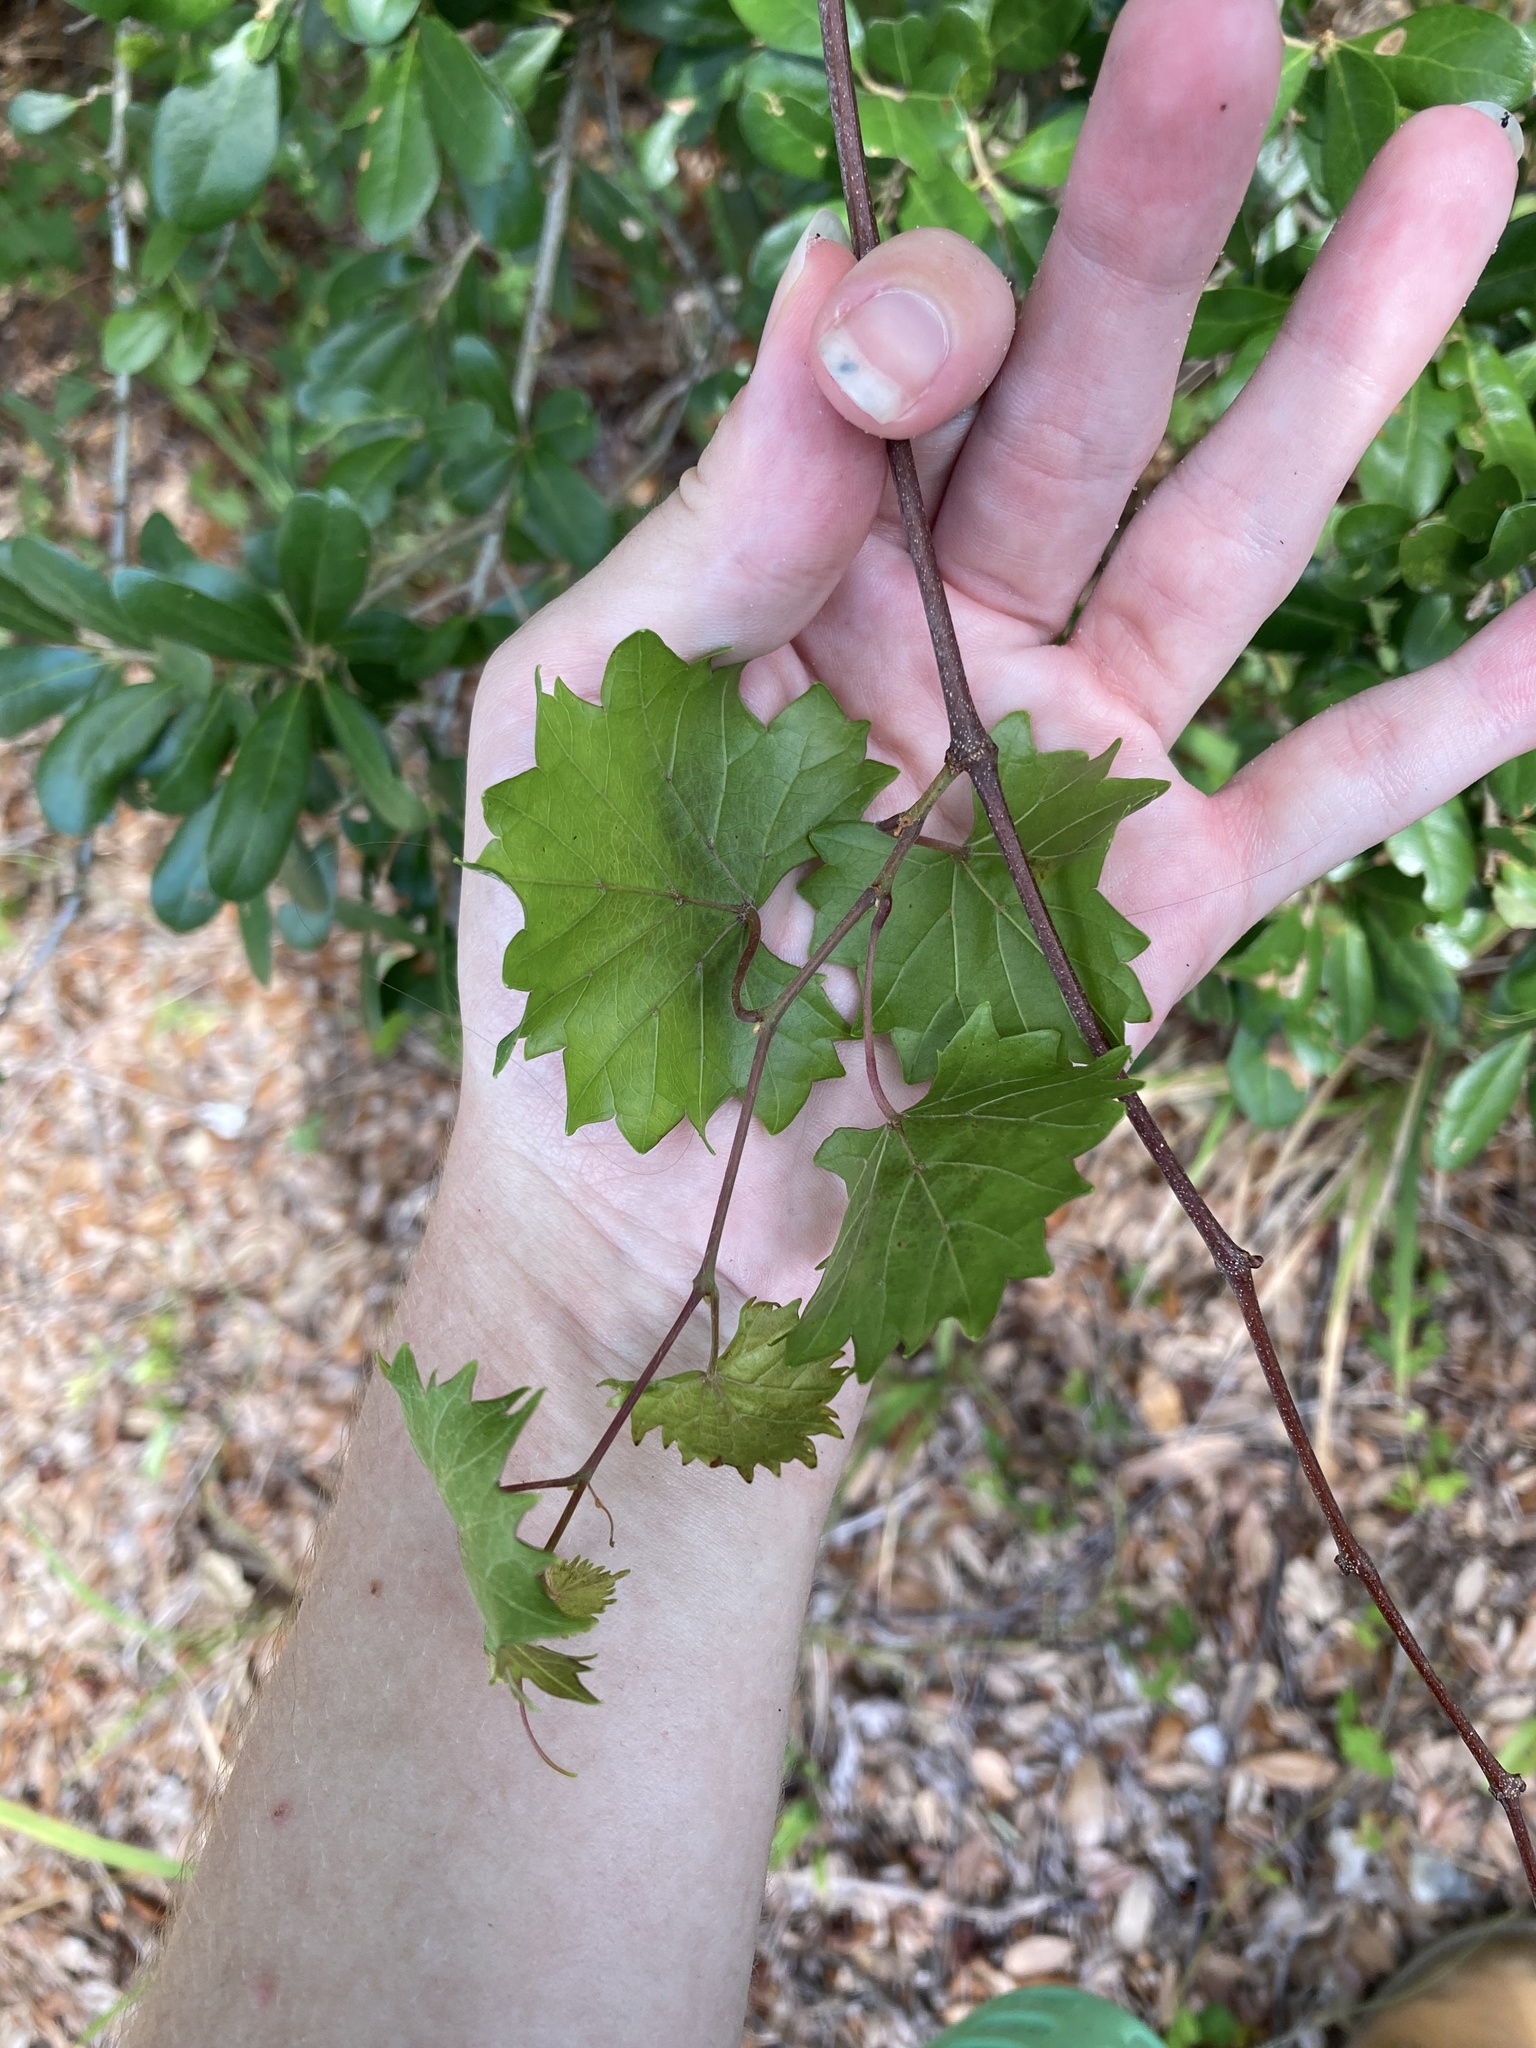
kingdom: Plantae
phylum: Tracheophyta
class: Magnoliopsida
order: Vitales
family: Vitaceae
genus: Vitis
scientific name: Vitis rotundifolia
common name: Muscadine grape
